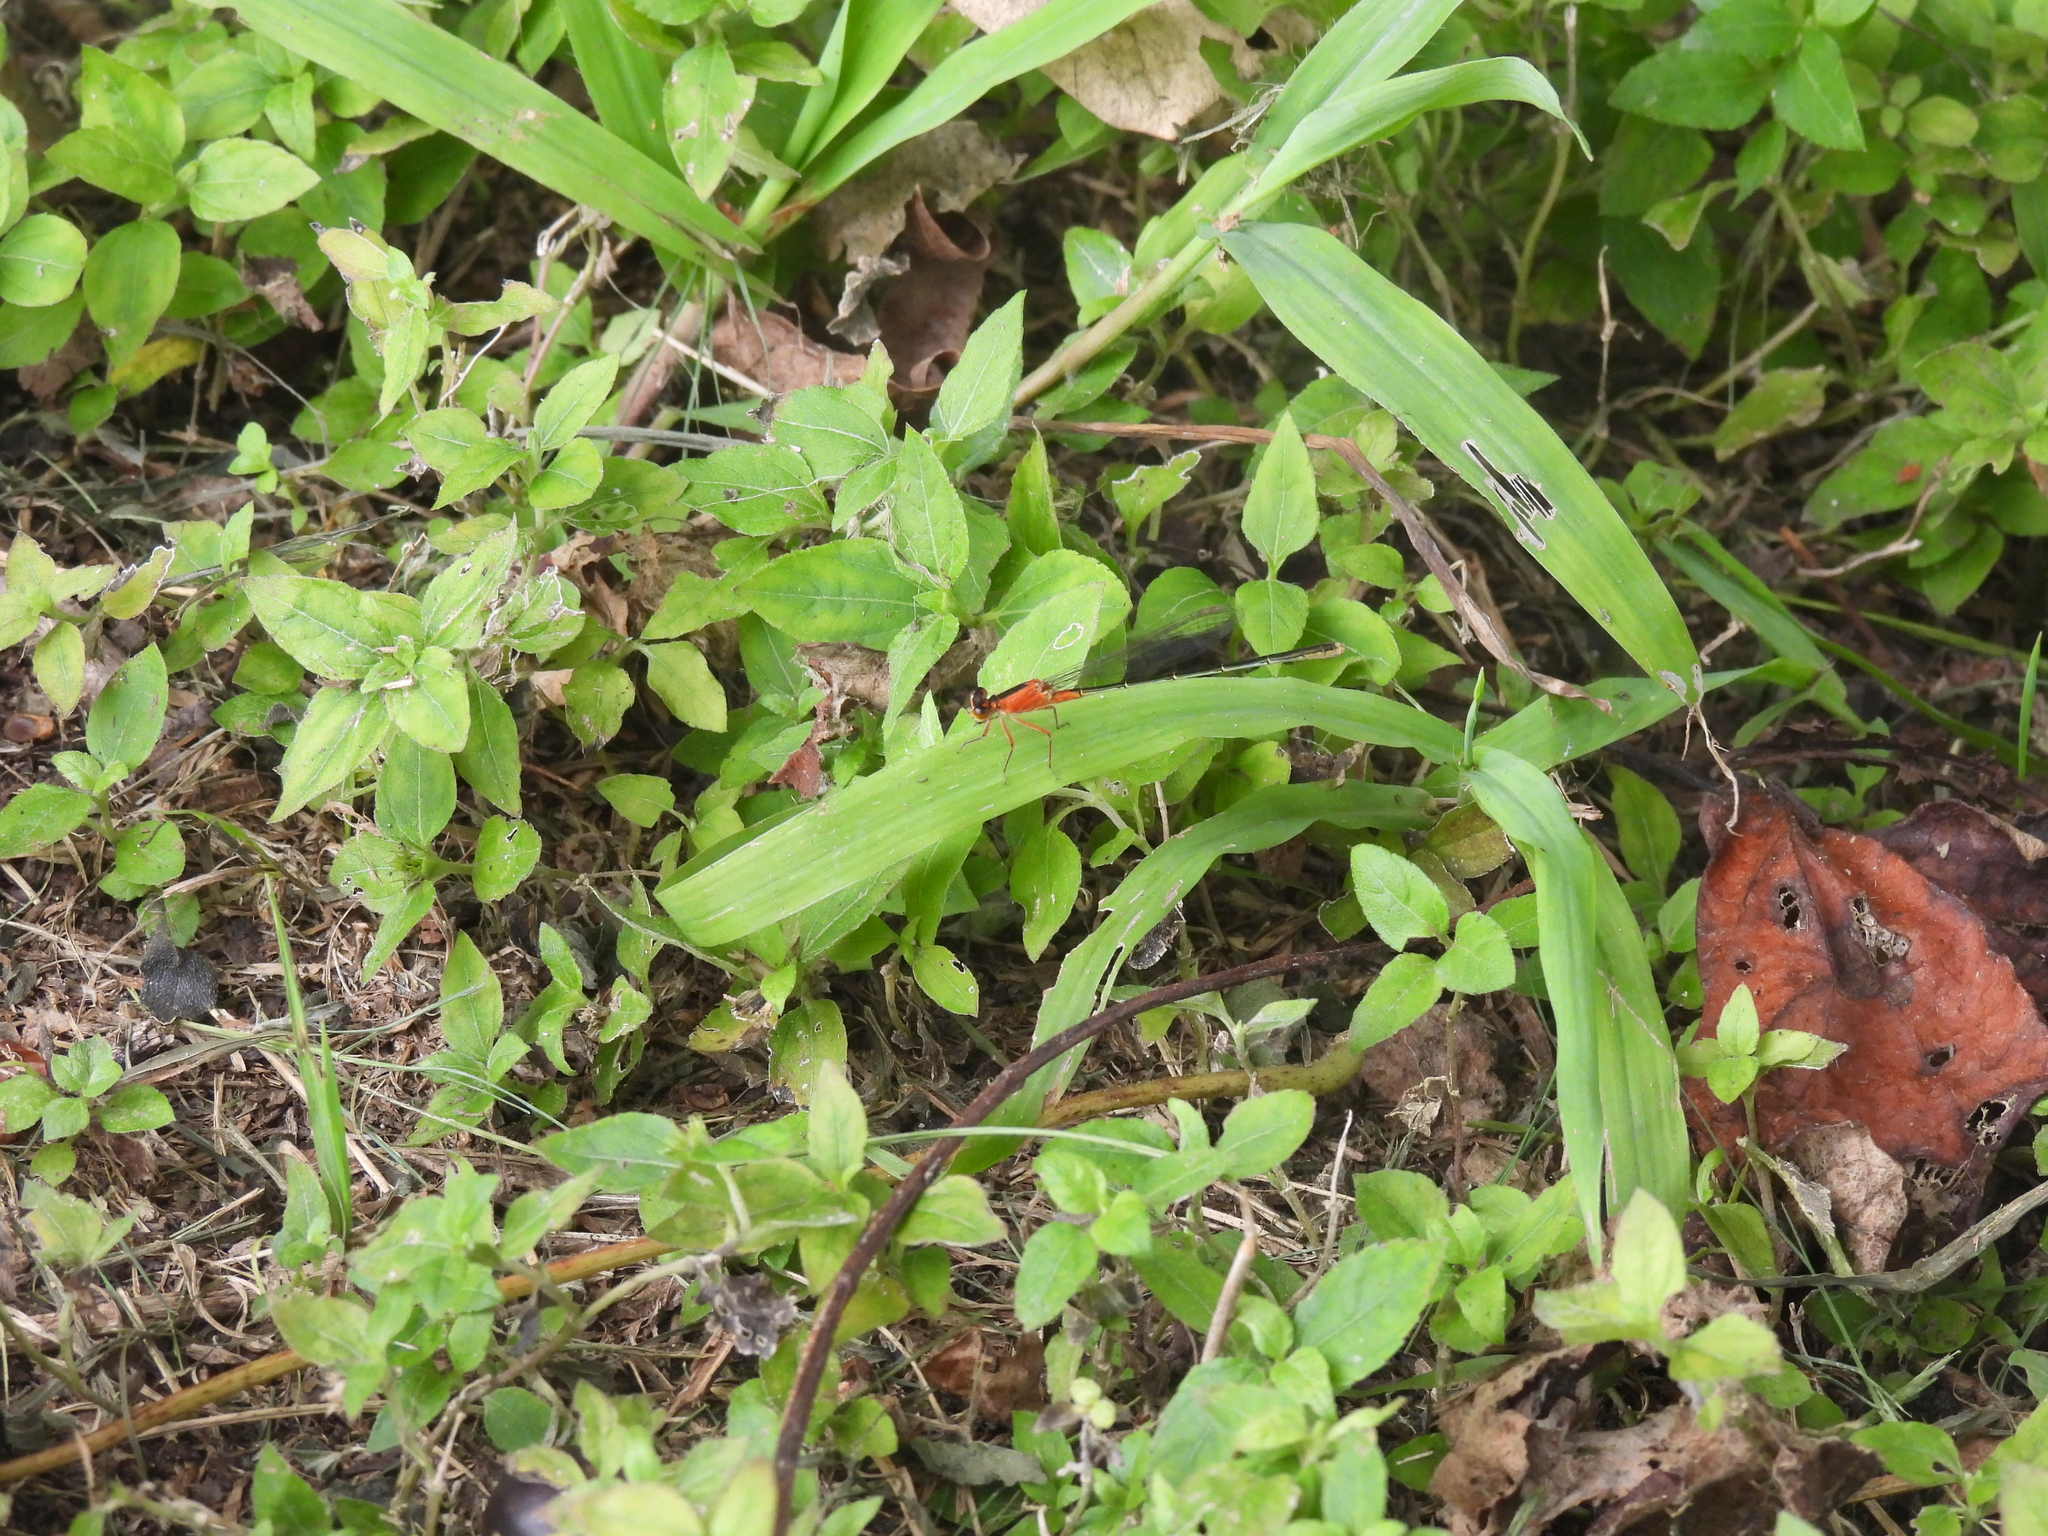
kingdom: Animalia
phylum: Arthropoda
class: Insecta
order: Odonata
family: Coenagrionidae
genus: Ischnura
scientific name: Ischnura ramburii
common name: Rambur's forktail
